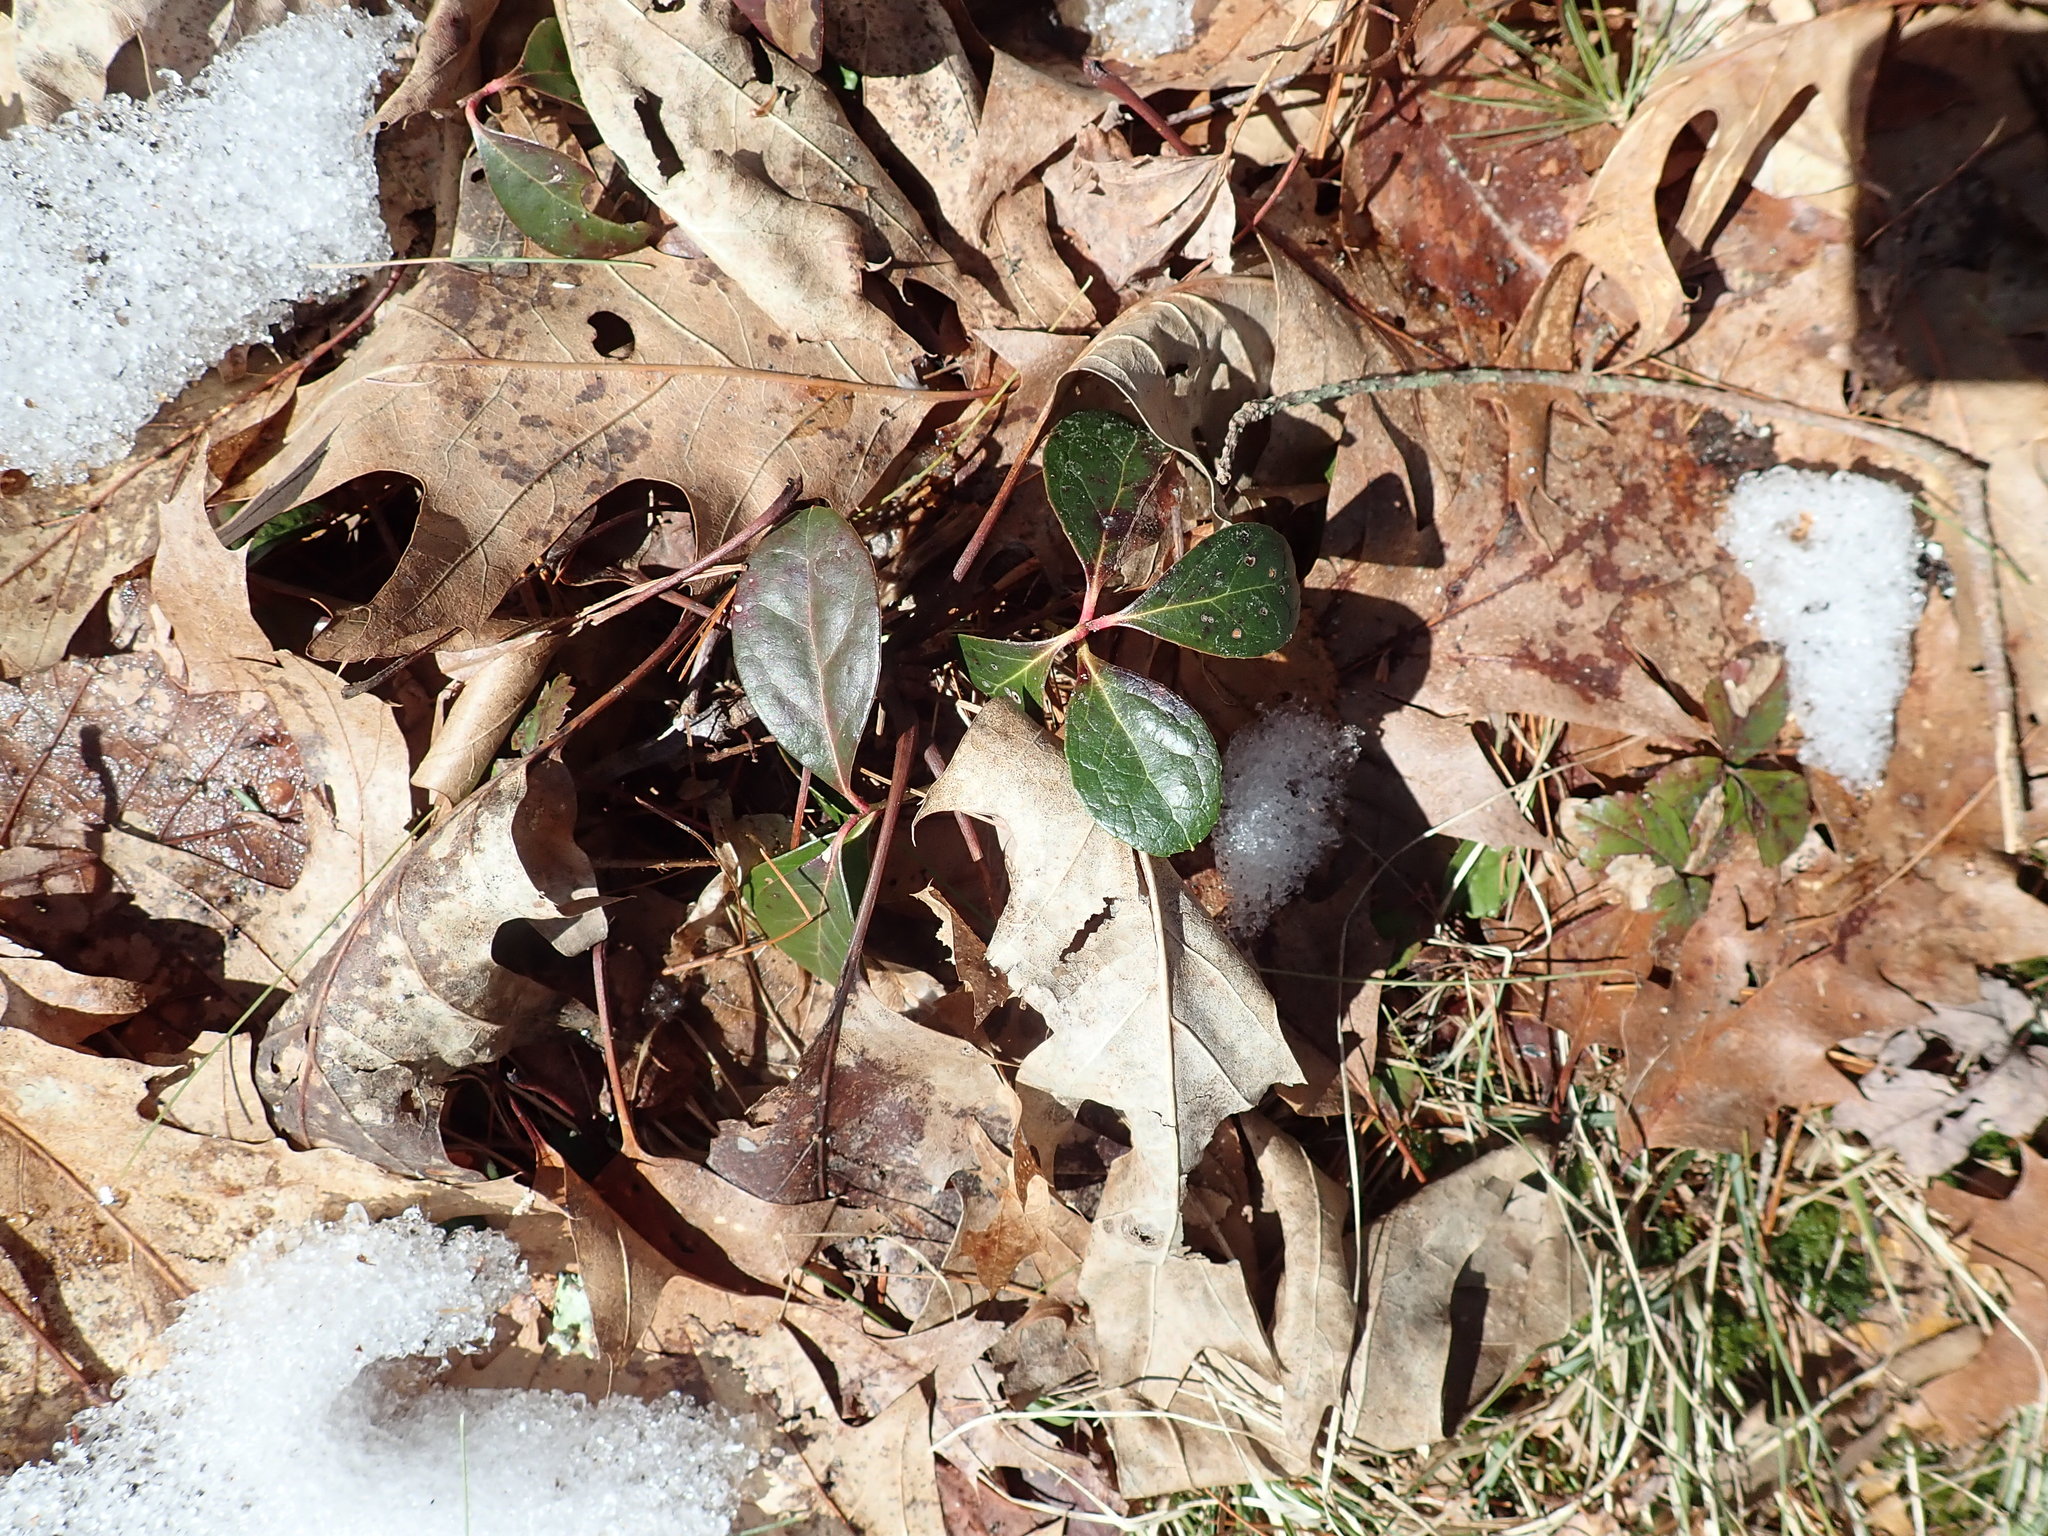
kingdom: Plantae
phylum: Tracheophyta
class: Magnoliopsida
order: Ericales
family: Ericaceae
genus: Gaultheria
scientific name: Gaultheria procumbens
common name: Checkerberry
